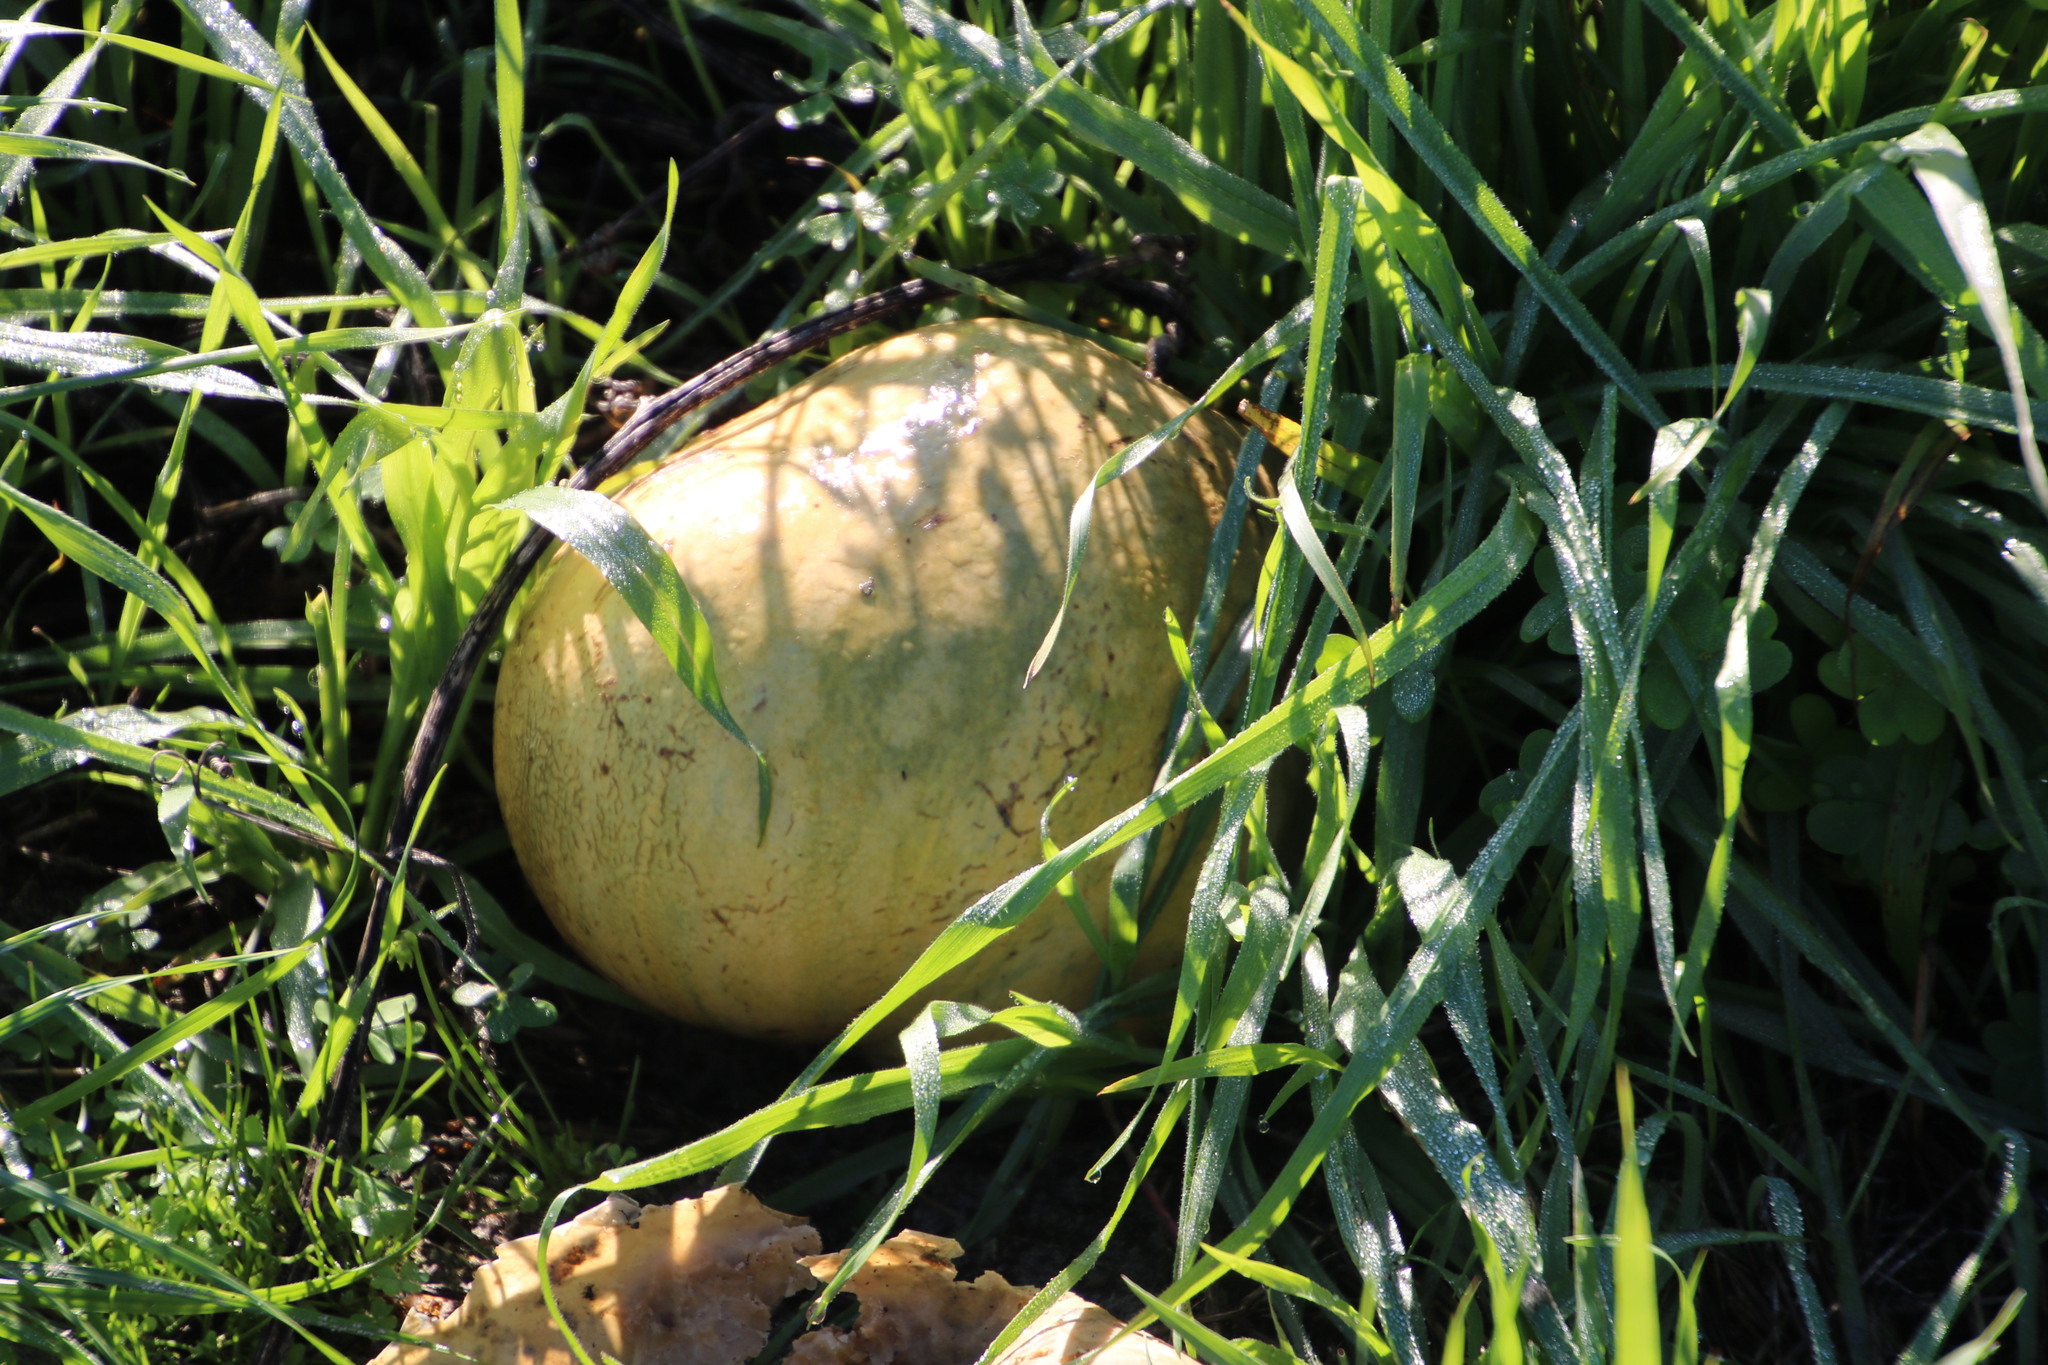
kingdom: Plantae
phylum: Tracheophyta
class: Magnoliopsida
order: Cucurbitales
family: Cucurbitaceae
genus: Citrullus
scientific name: Citrullus amarus
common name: Fodder-melon
